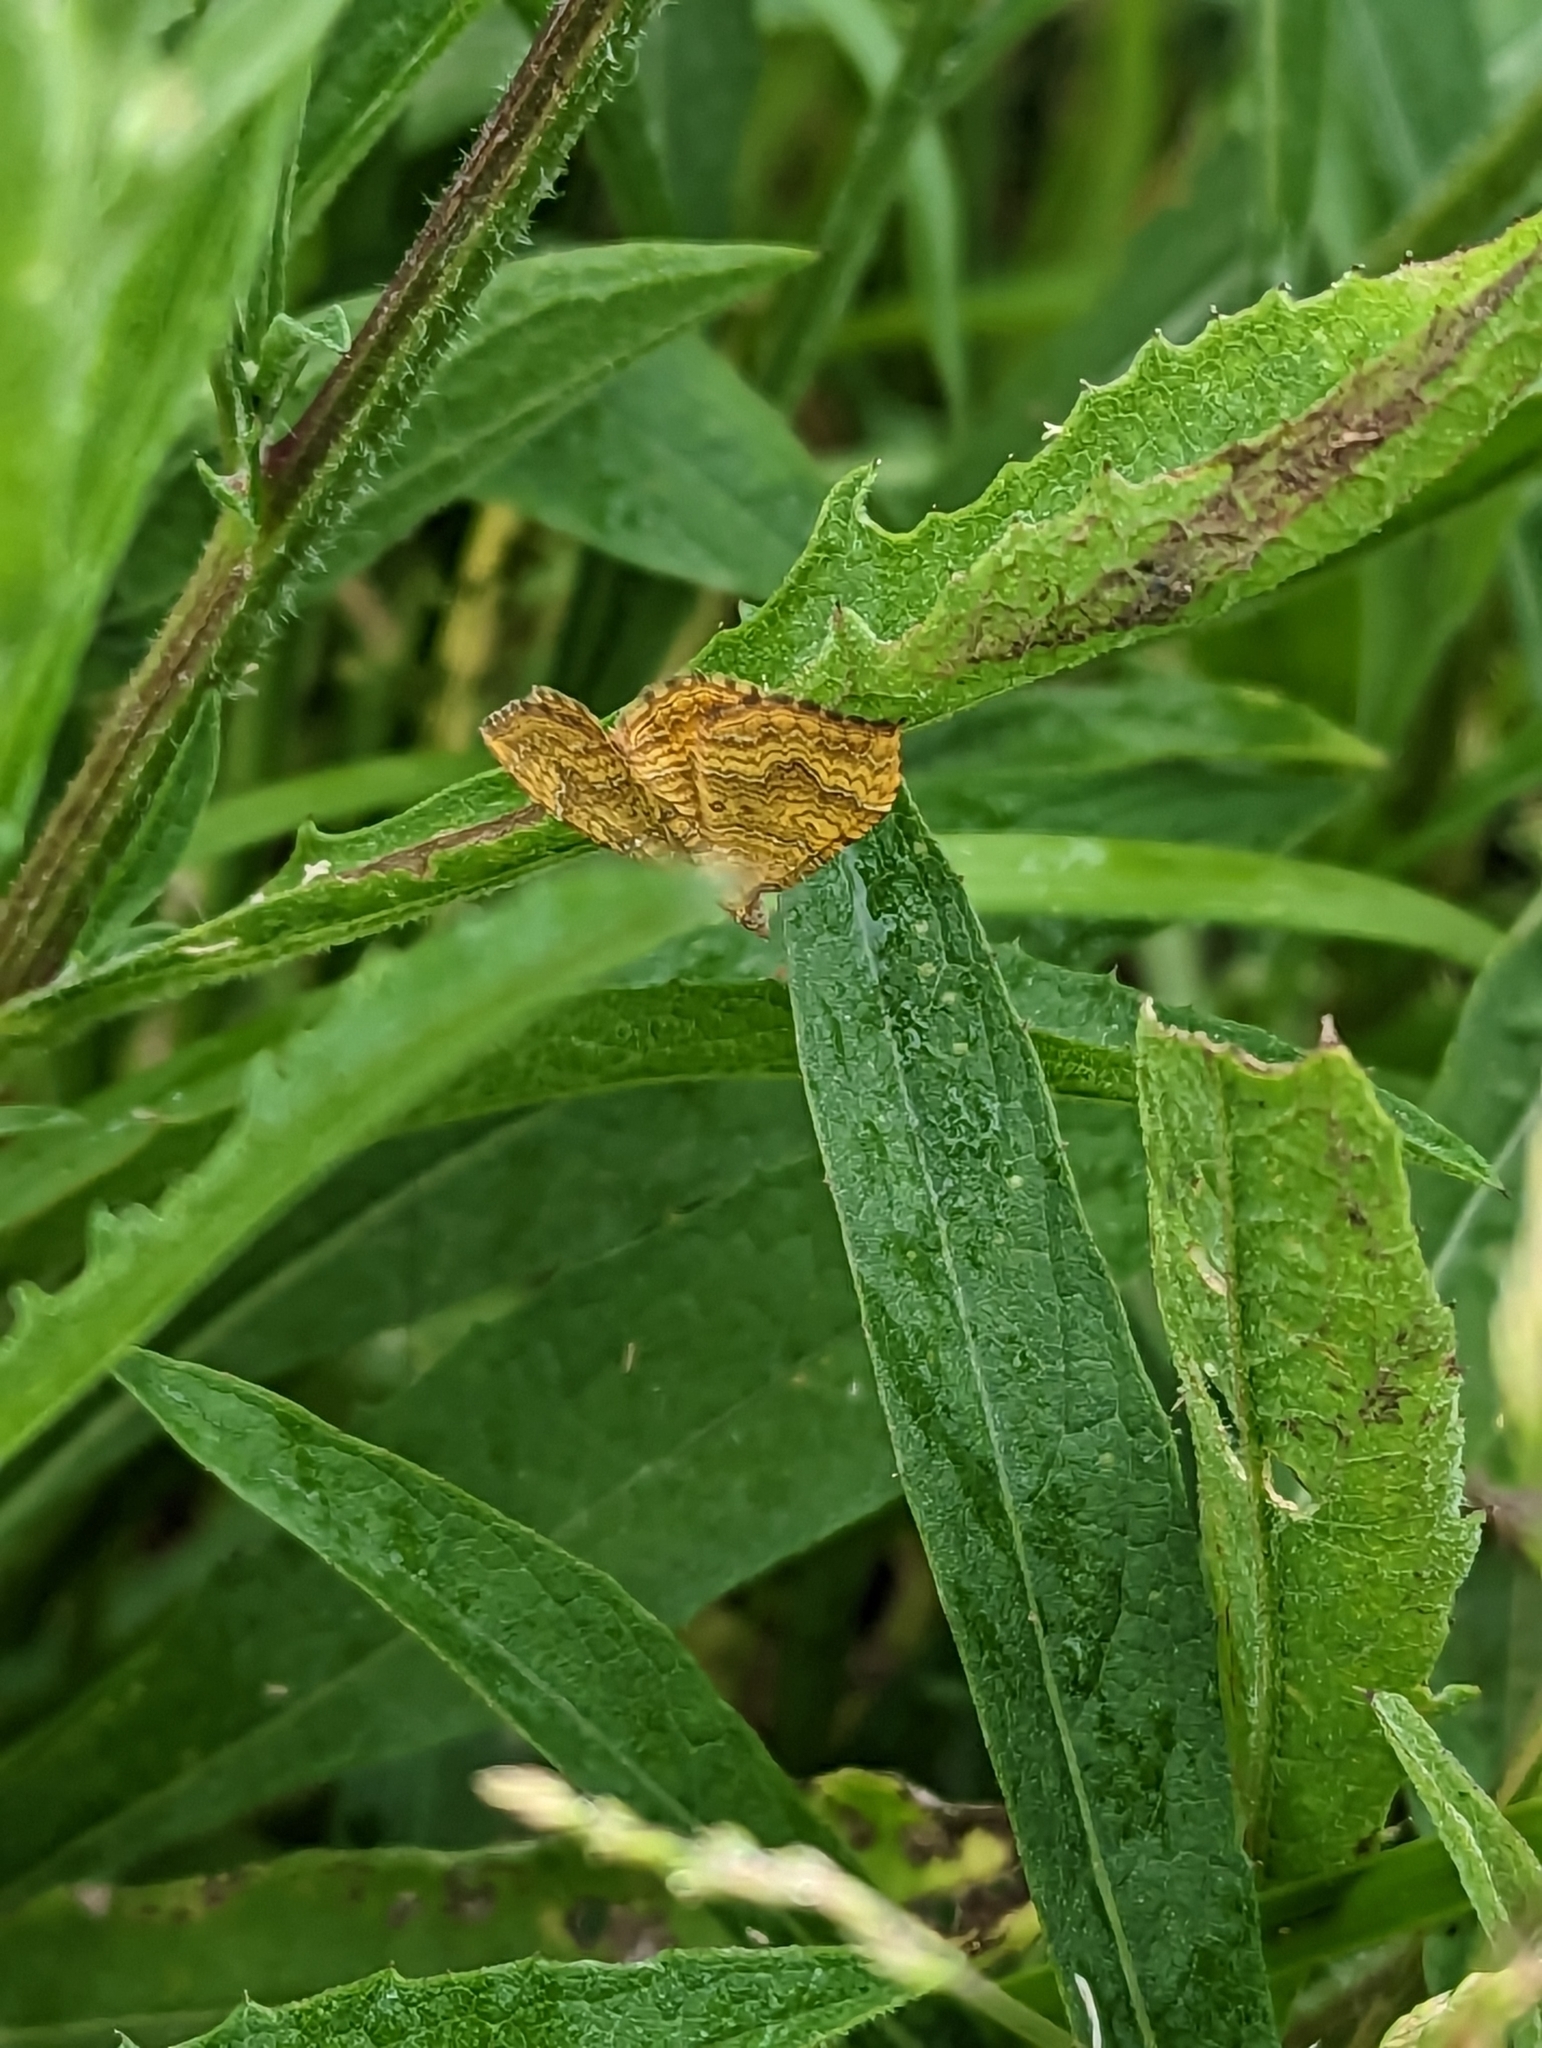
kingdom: Animalia
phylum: Arthropoda
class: Insecta
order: Lepidoptera
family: Geometridae
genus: Camptogramma
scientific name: Camptogramma bilineata
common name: Yellow shell
